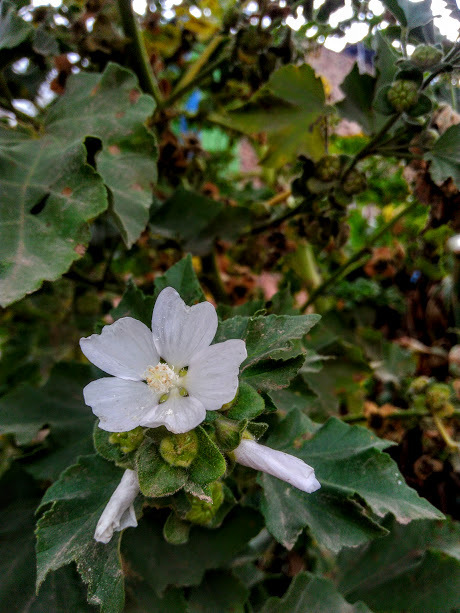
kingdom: Plantae
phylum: Tracheophyta
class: Magnoliopsida
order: Malvales
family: Malvaceae
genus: Malva
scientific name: Malva arborea
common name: Tree mallow
